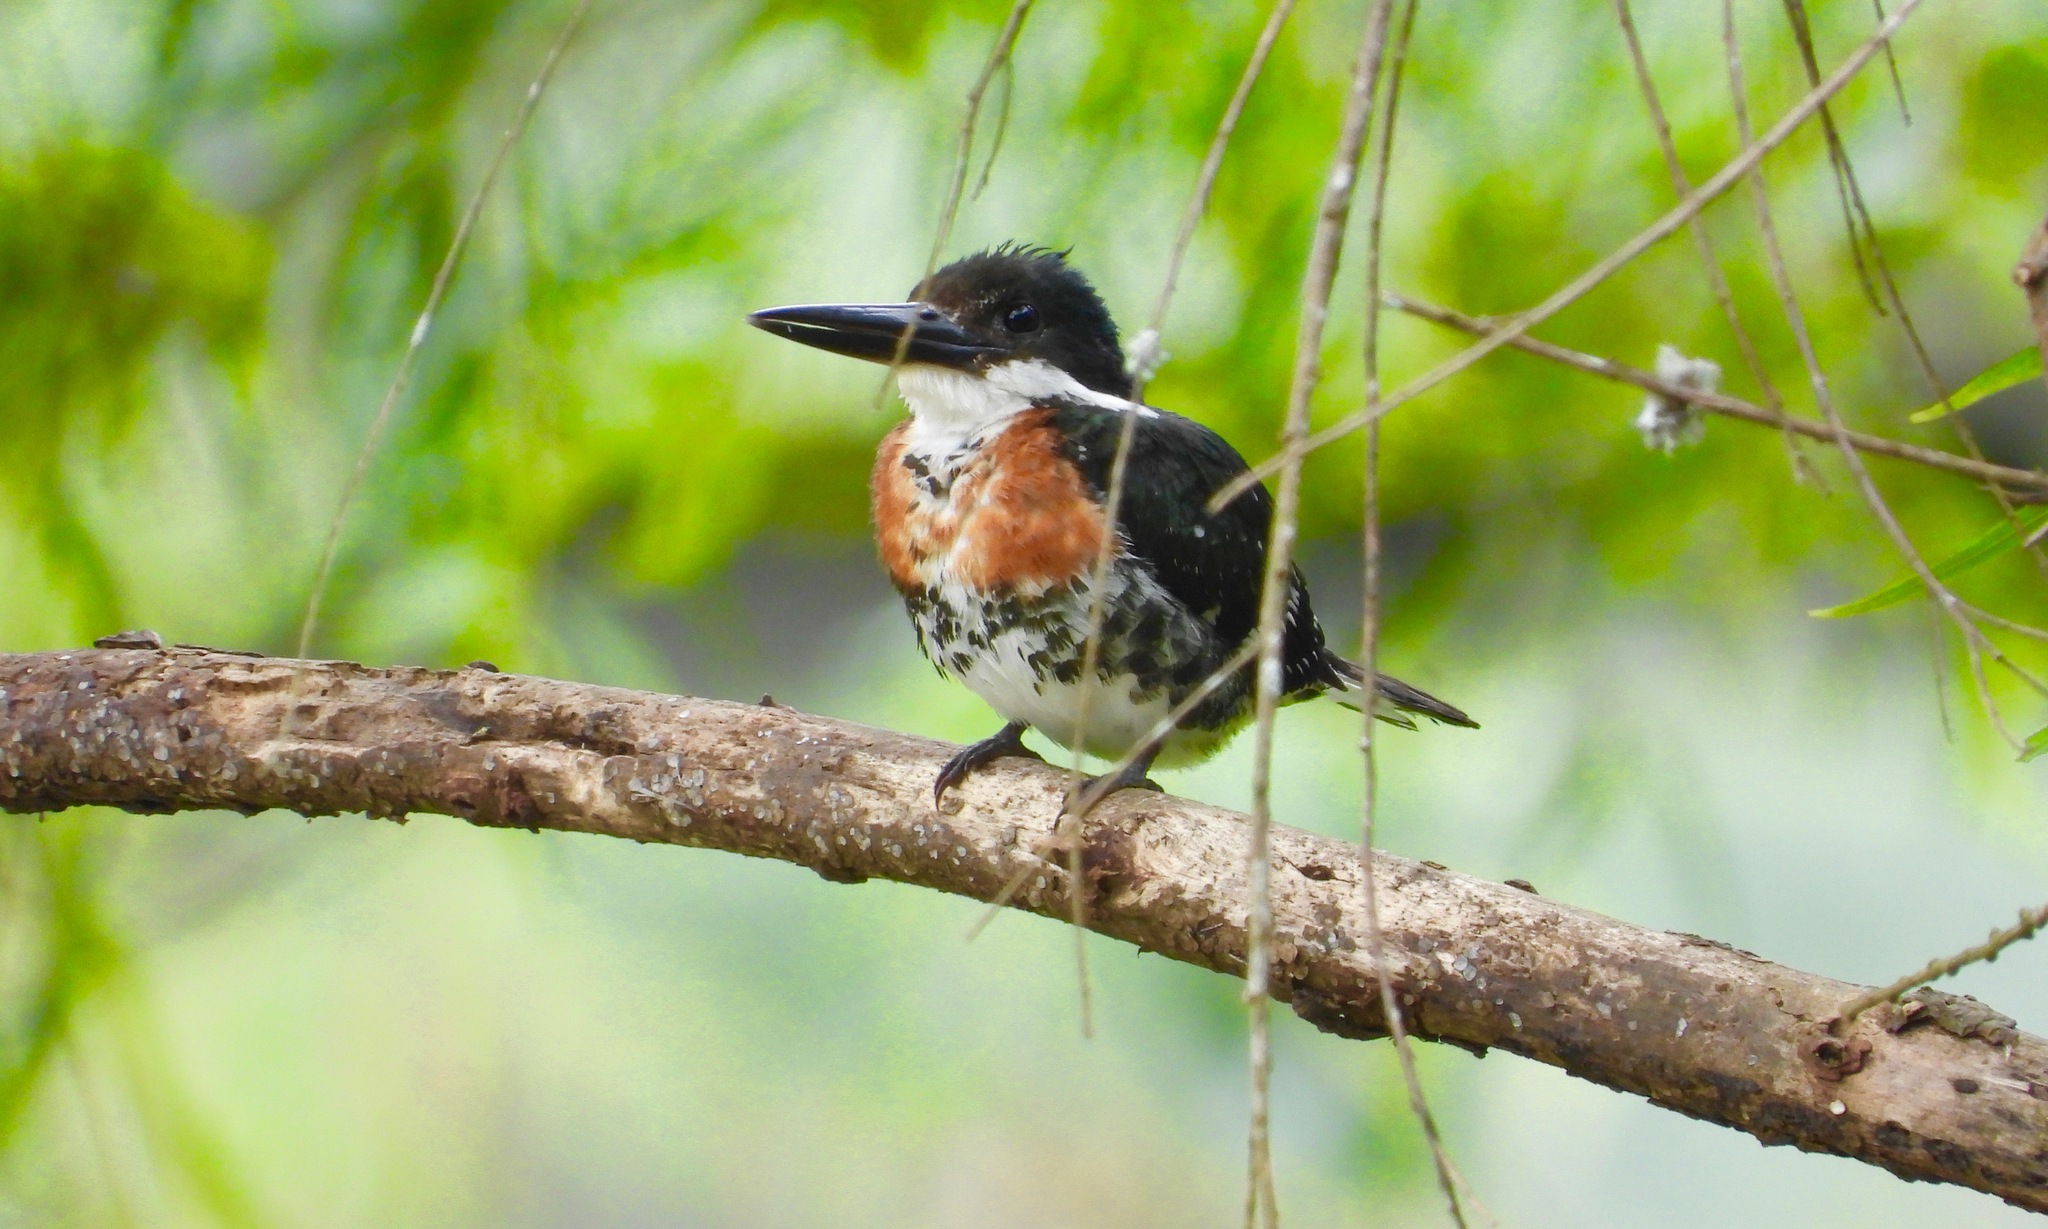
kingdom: Animalia
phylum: Chordata
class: Aves
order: Coraciiformes
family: Alcedinidae
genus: Chloroceryle
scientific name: Chloroceryle americana
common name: Green kingfisher
